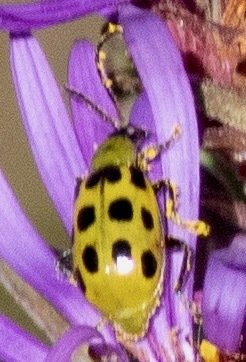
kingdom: Animalia
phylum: Arthropoda
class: Insecta
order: Coleoptera
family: Chrysomelidae
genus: Diabrotica
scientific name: Diabrotica undecimpunctata
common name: Spotted cucumber beetle
